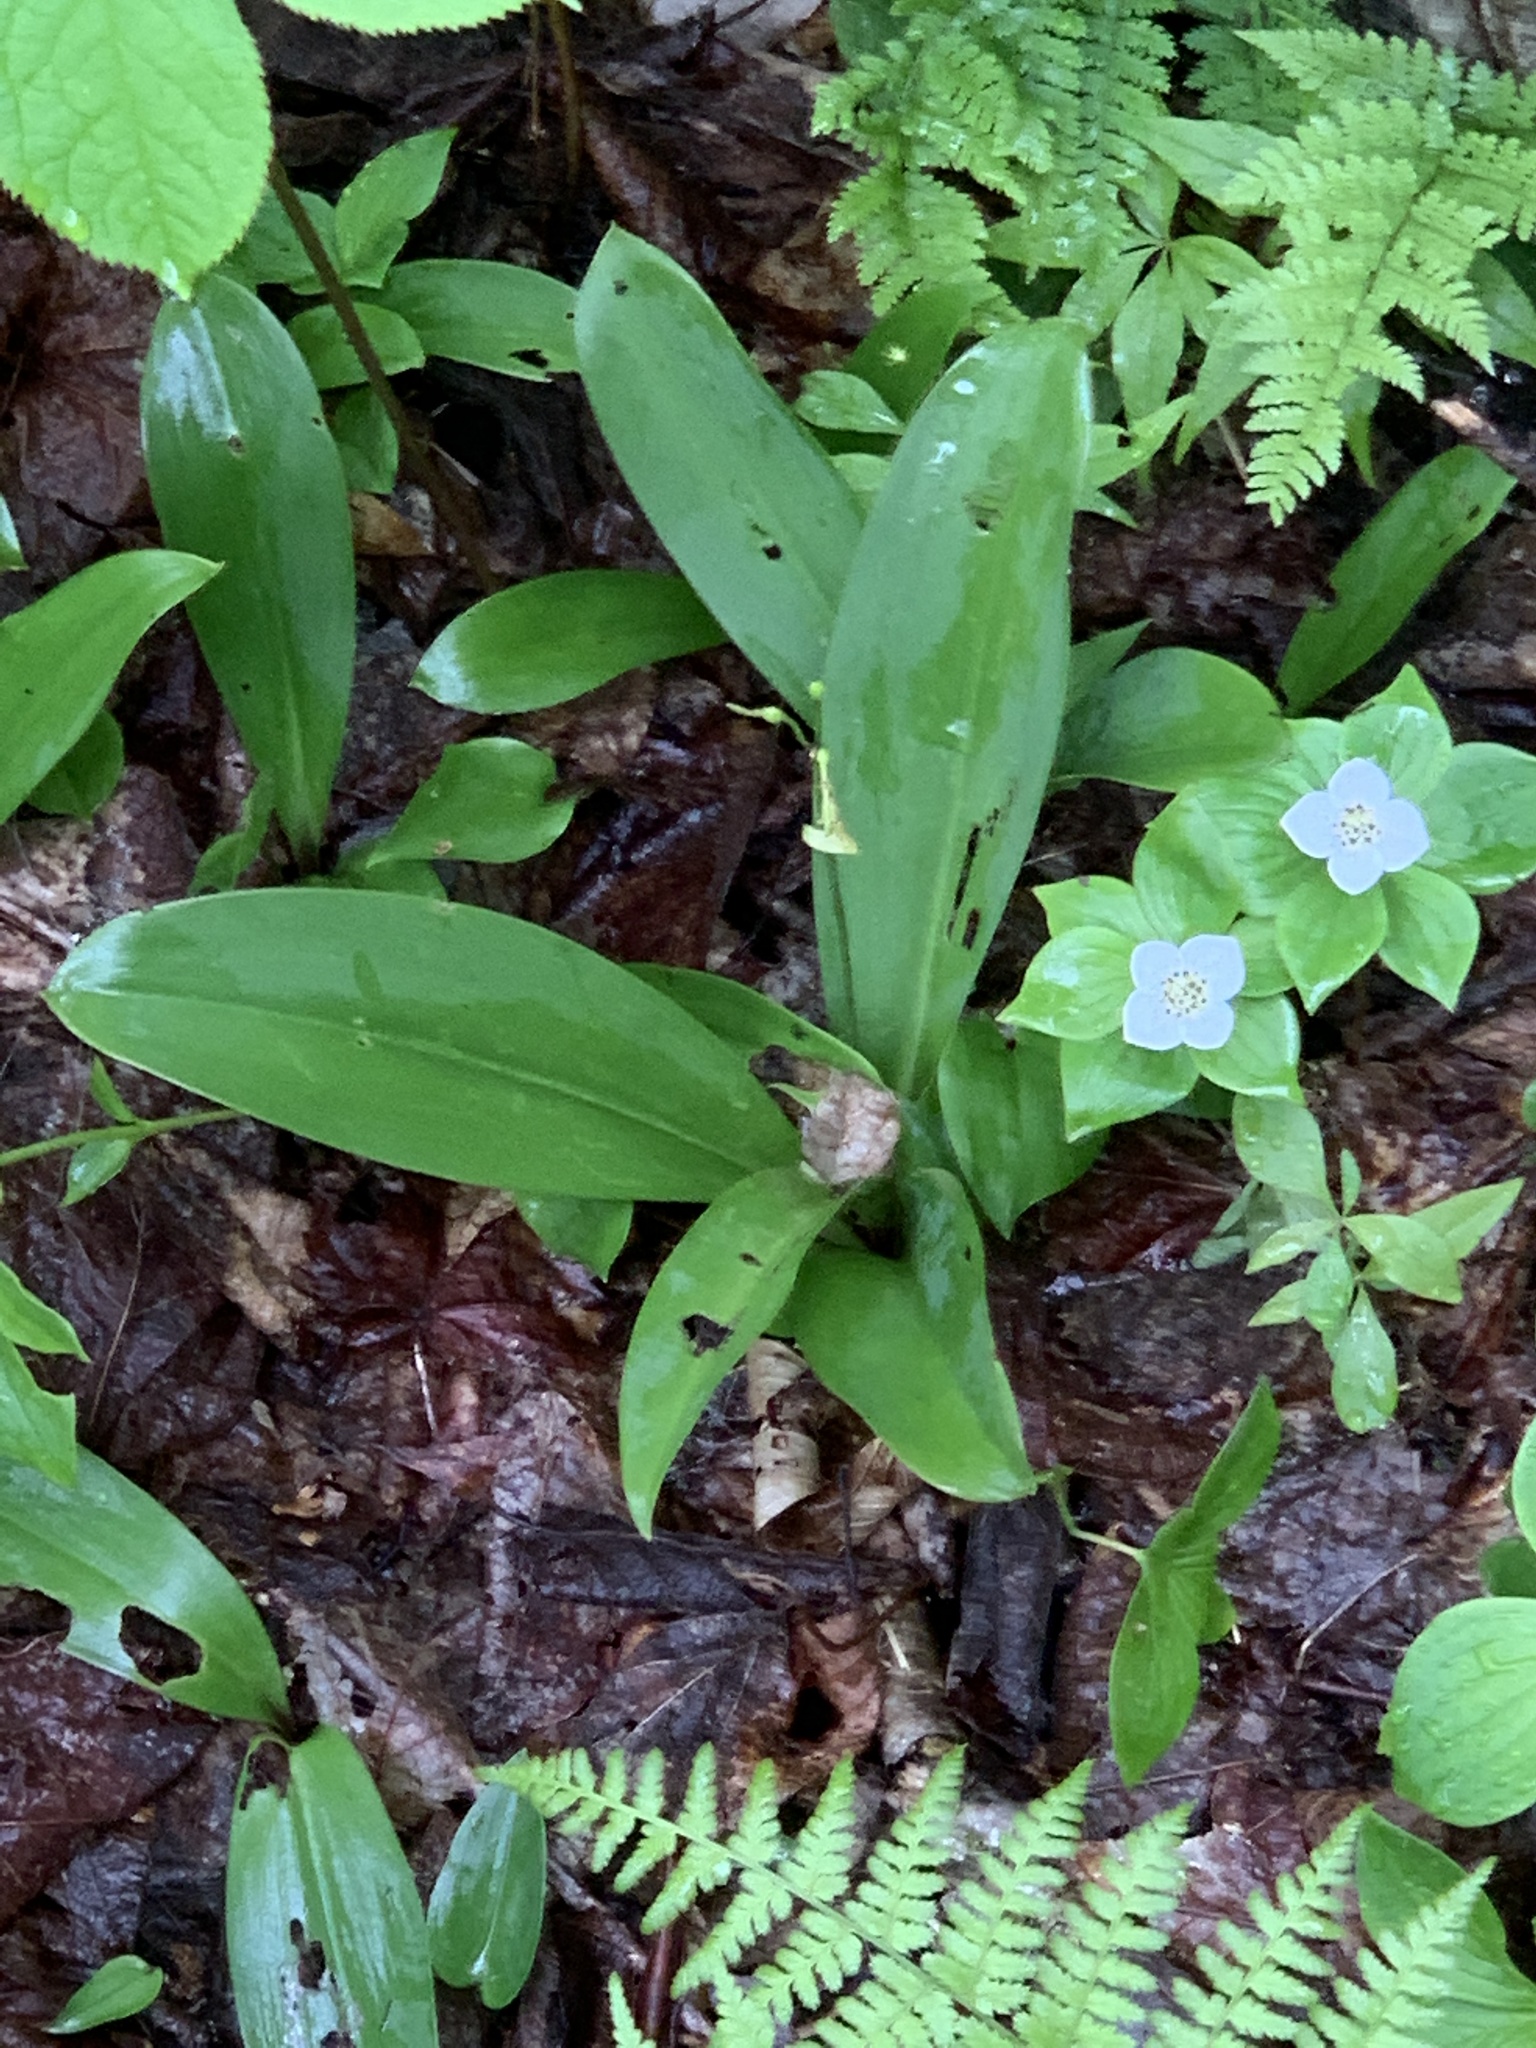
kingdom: Plantae
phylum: Tracheophyta
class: Liliopsida
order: Liliales
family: Liliaceae
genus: Clintonia
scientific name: Clintonia borealis
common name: Yellow clintonia
